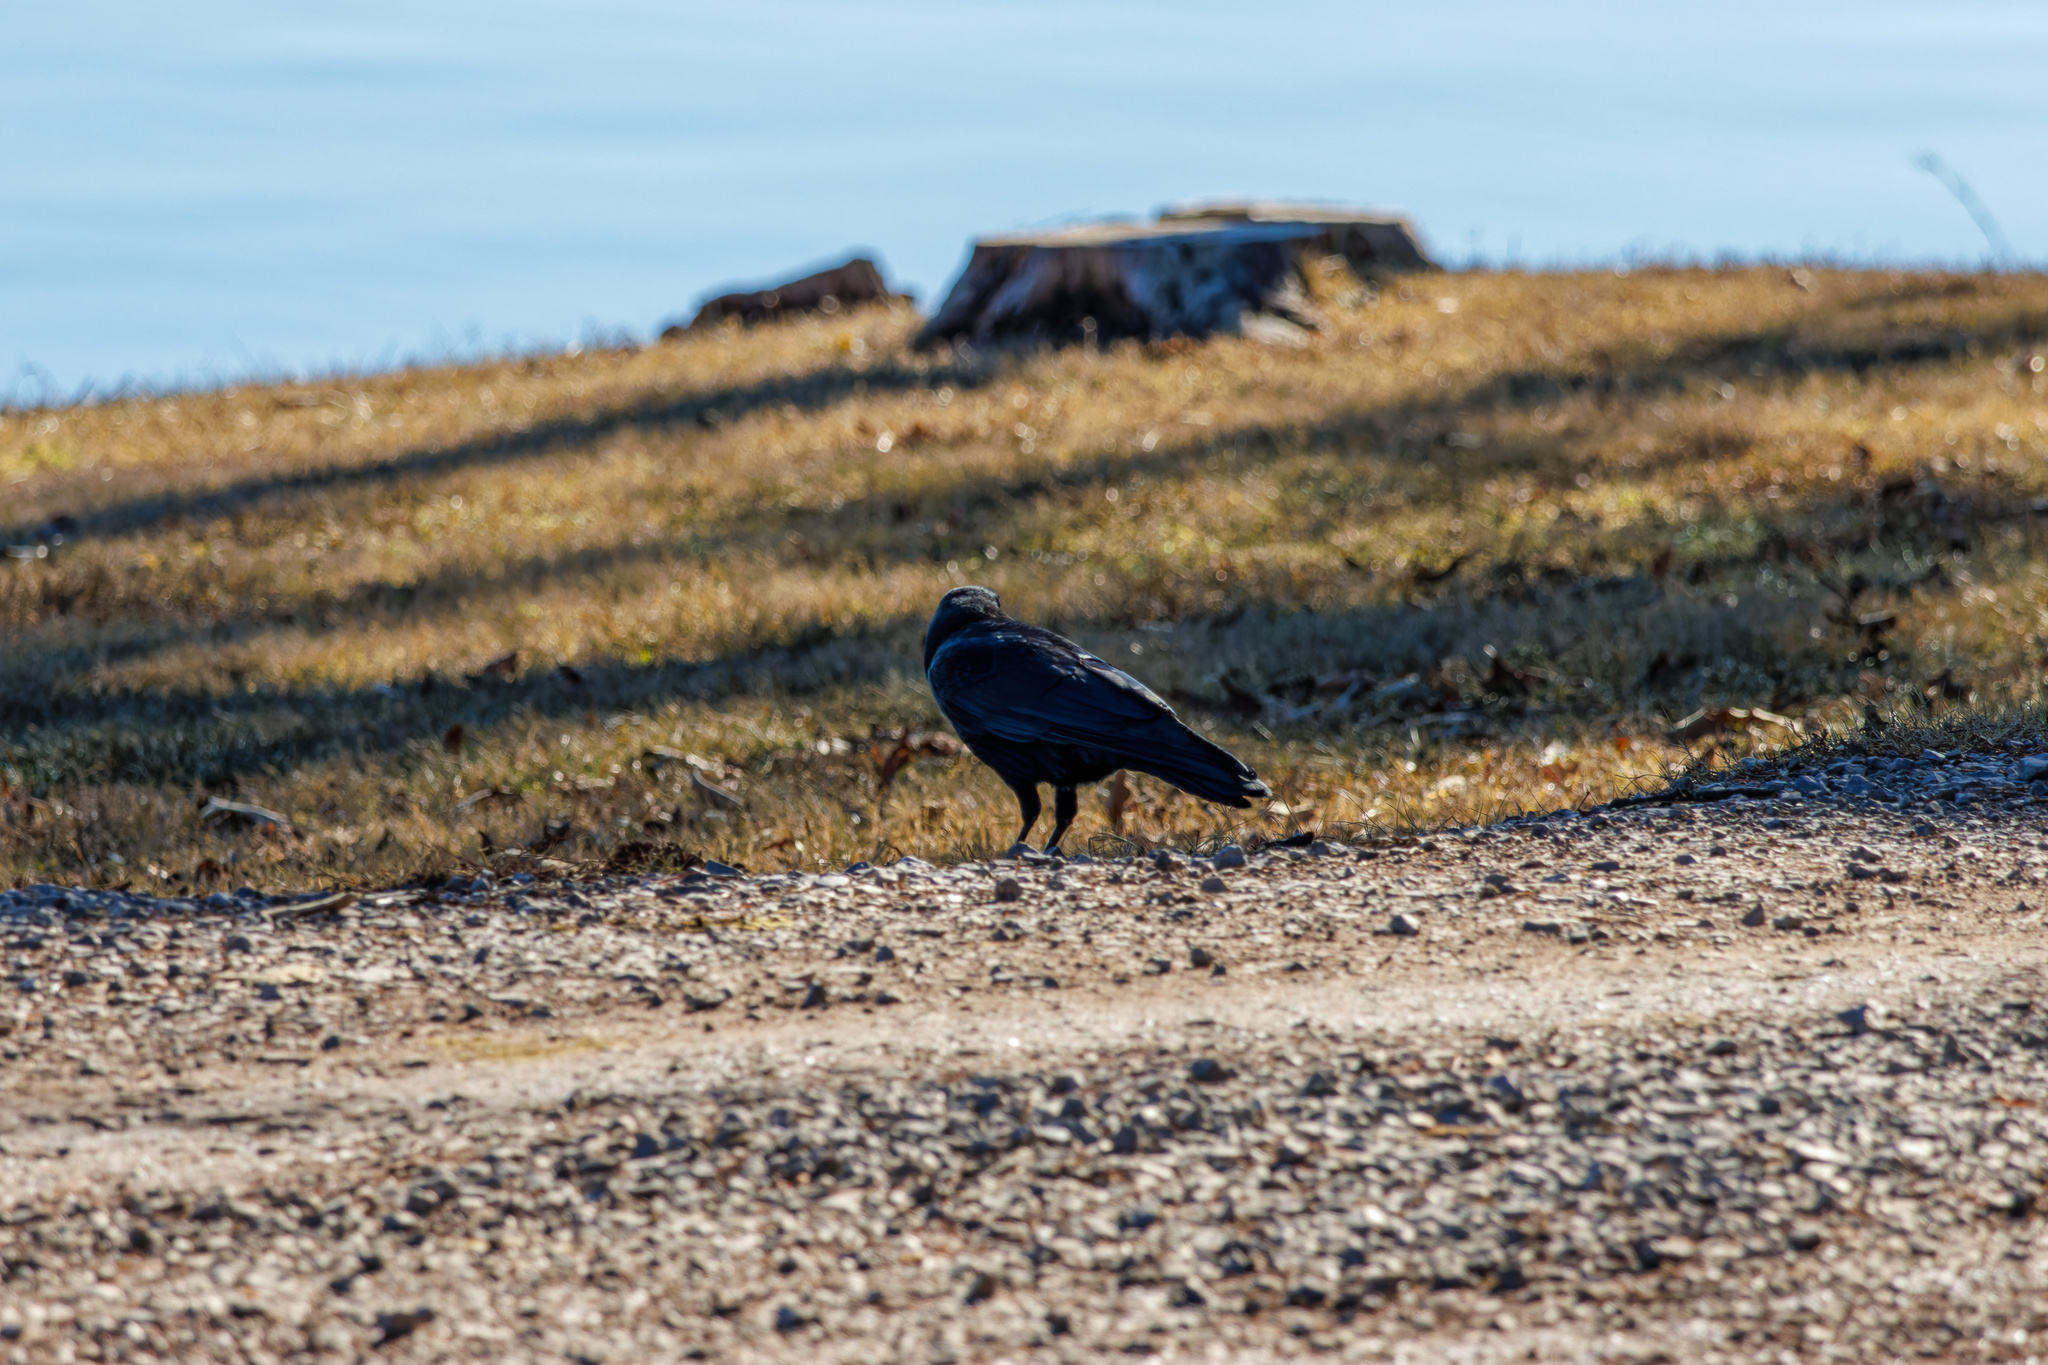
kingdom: Animalia
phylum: Chordata
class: Aves
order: Passeriformes
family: Corvidae
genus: Corvus
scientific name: Corvus brachyrhynchos
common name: American crow
